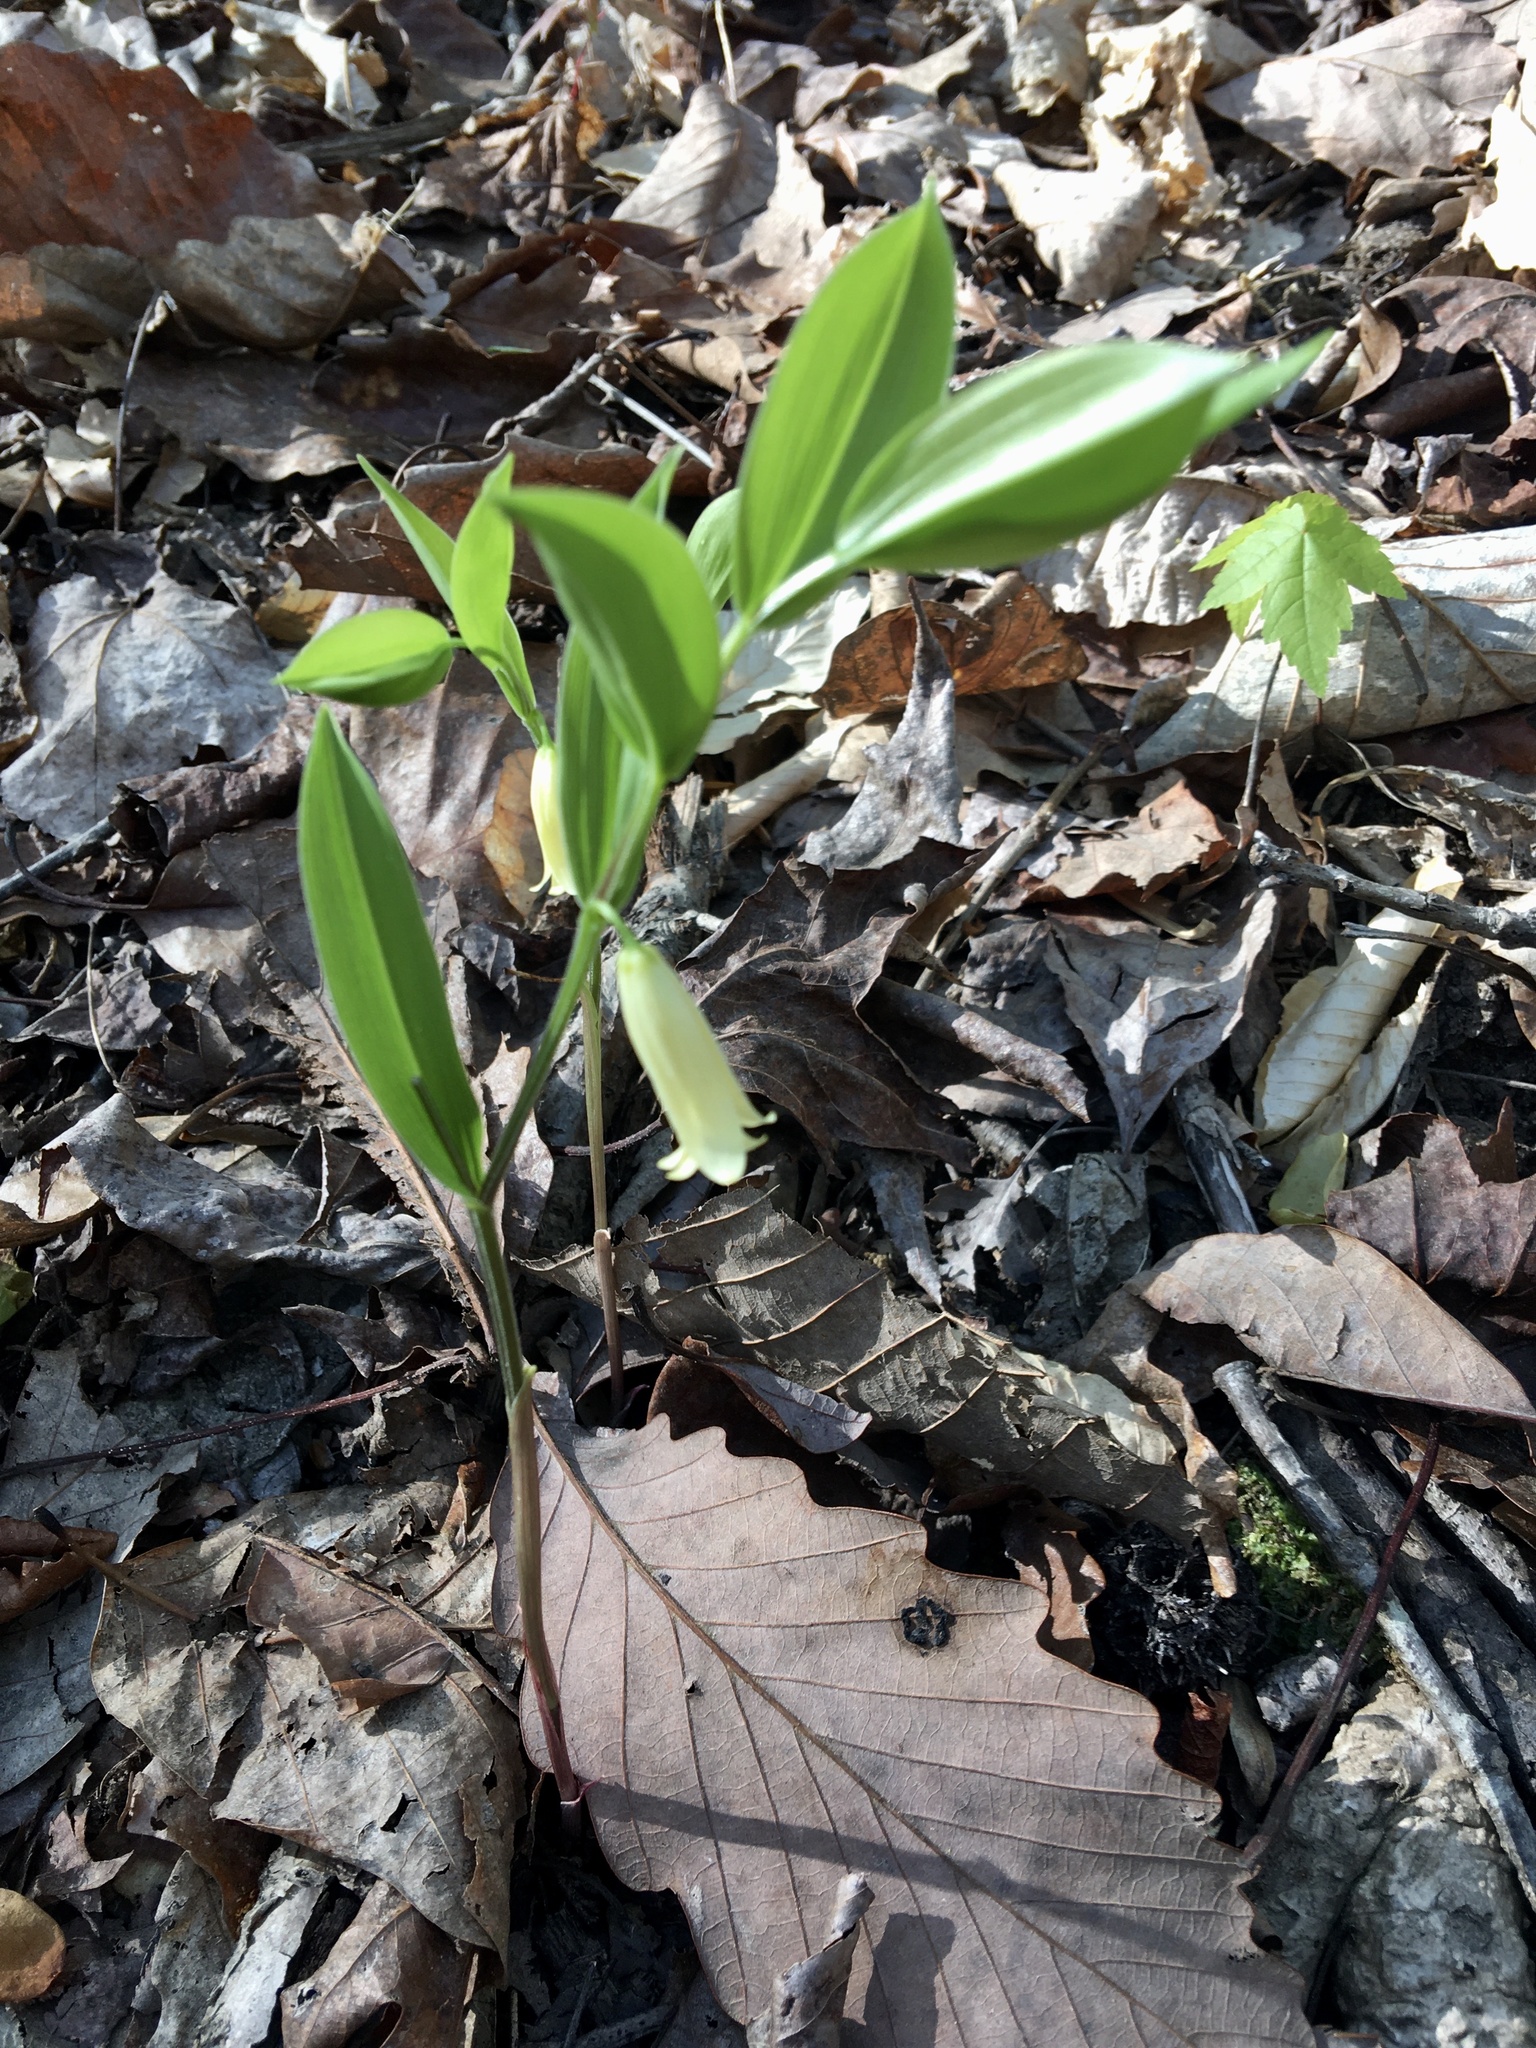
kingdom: Plantae
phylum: Tracheophyta
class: Liliopsida
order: Liliales
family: Colchicaceae
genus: Uvularia
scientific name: Uvularia puberula
